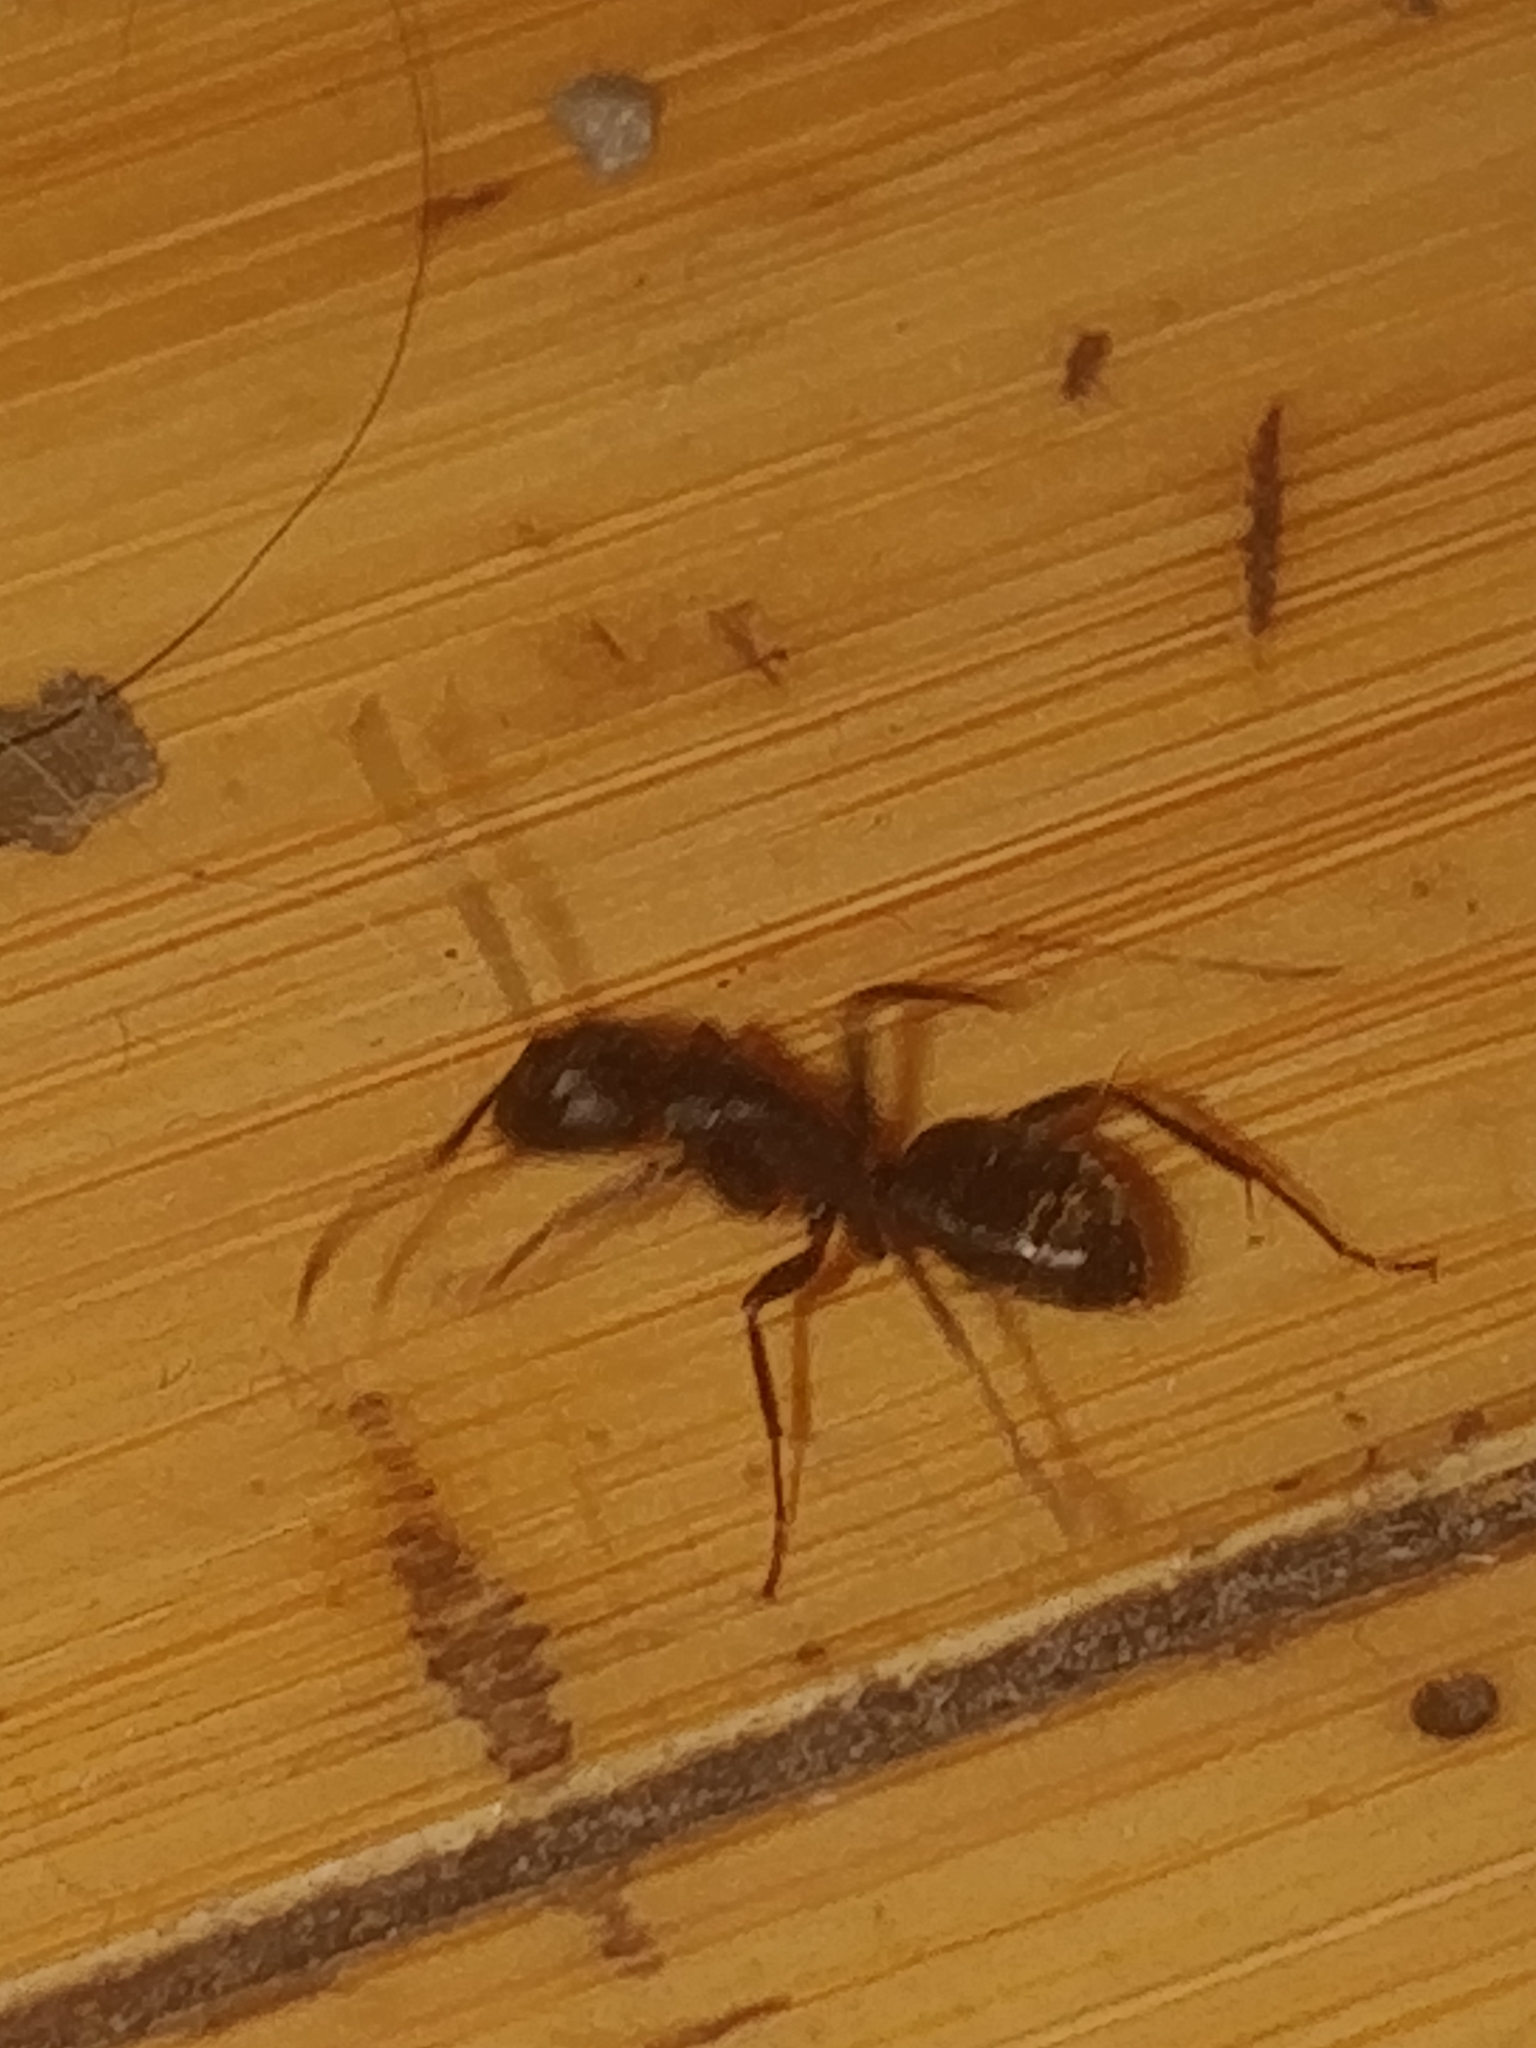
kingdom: Animalia
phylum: Arthropoda
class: Insecta
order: Hymenoptera
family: Formicidae
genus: Camponotus
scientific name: Camponotus pennsylvanicus
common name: Black carpenter ant
